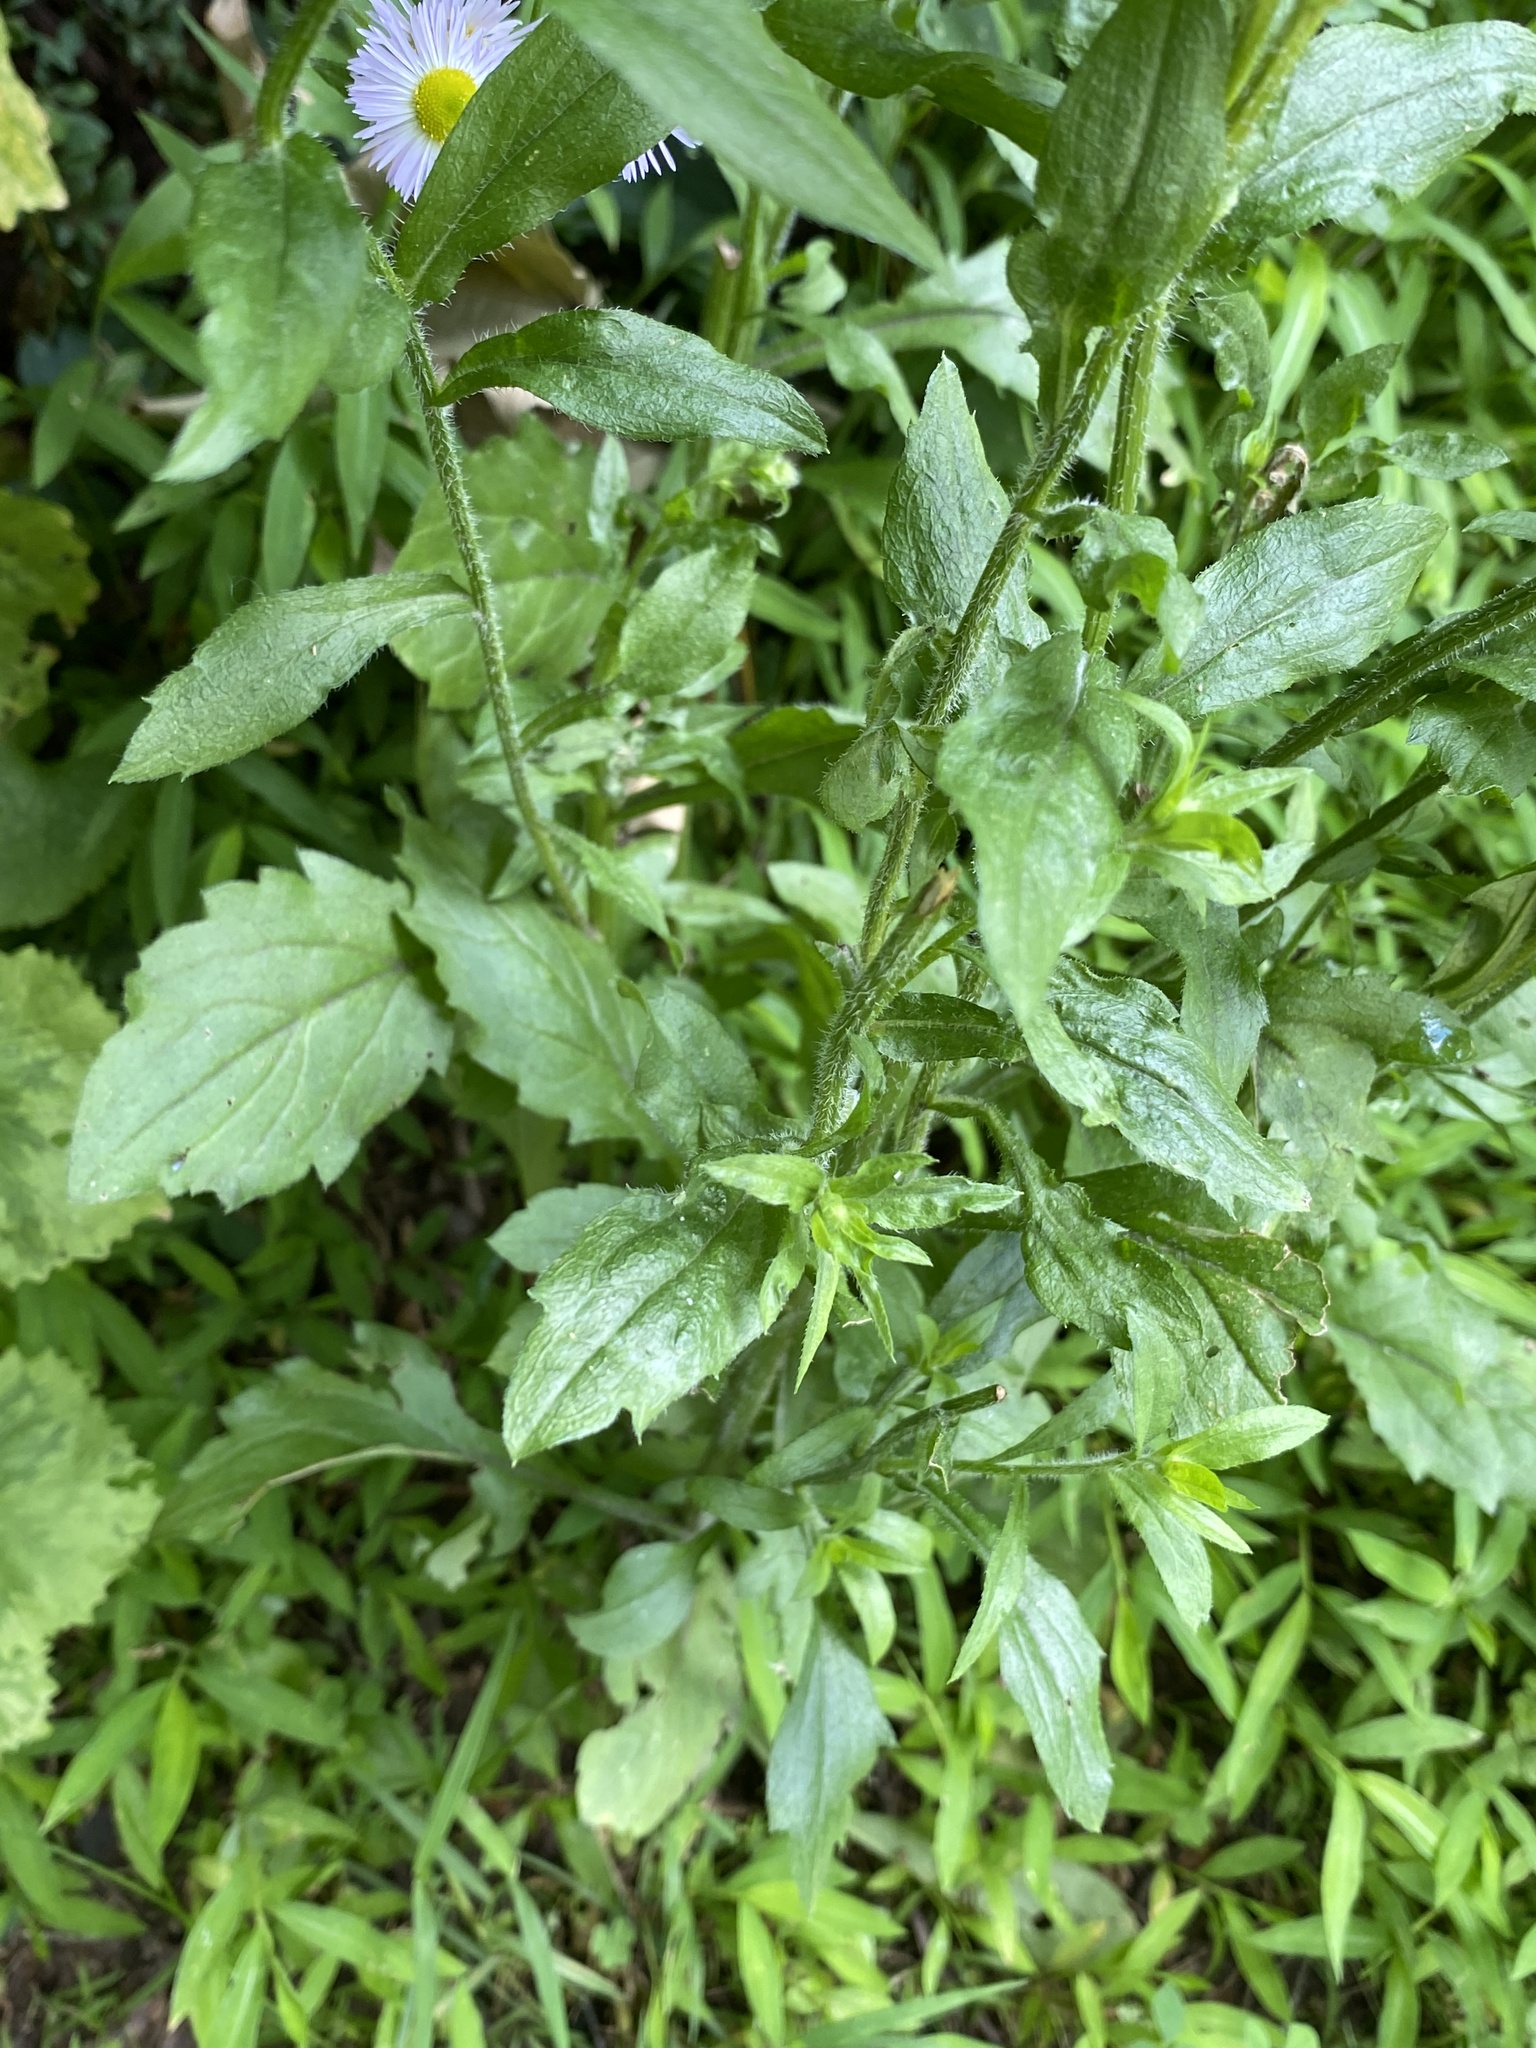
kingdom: Plantae
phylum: Tracheophyta
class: Magnoliopsida
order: Asterales
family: Asteraceae
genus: Erigeron
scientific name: Erigeron annuus
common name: Tall fleabane
